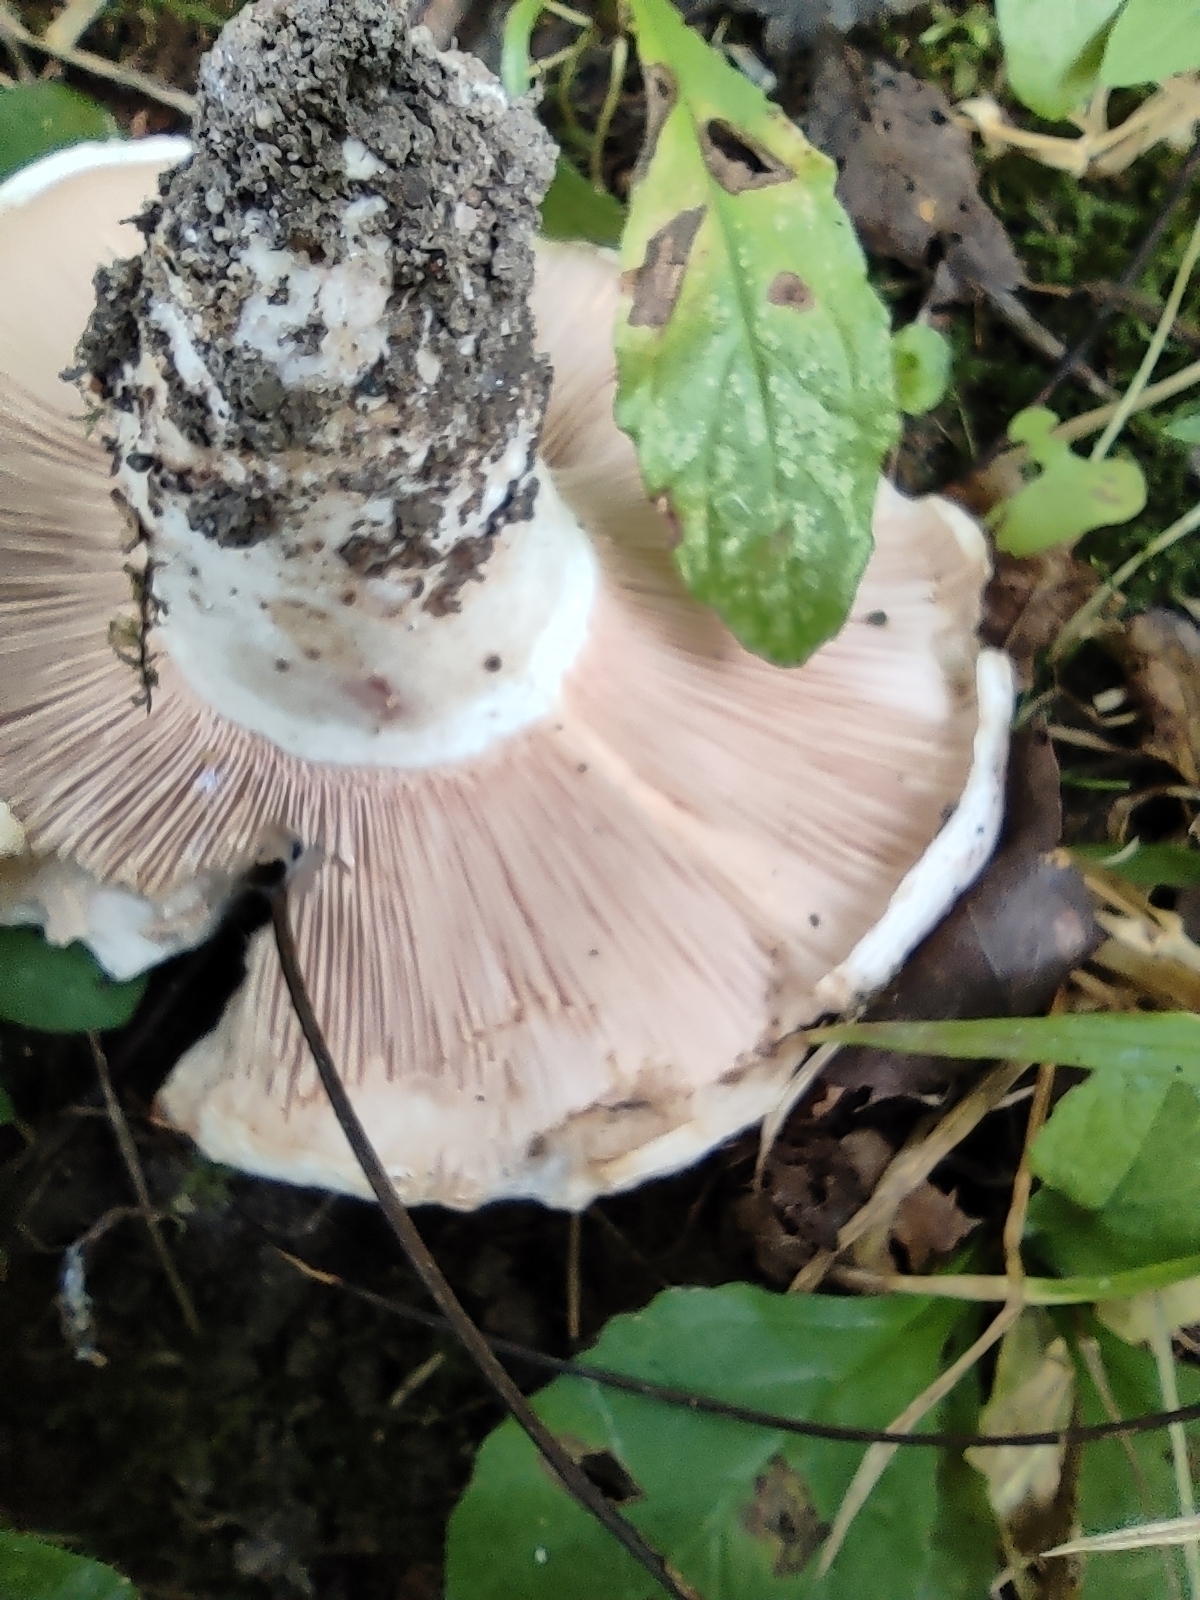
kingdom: Fungi
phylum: Basidiomycota
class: Agaricomycetes
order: Russulales
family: Russulaceae
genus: Lactarius
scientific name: Lactarius controversus
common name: Blushing milkcap
